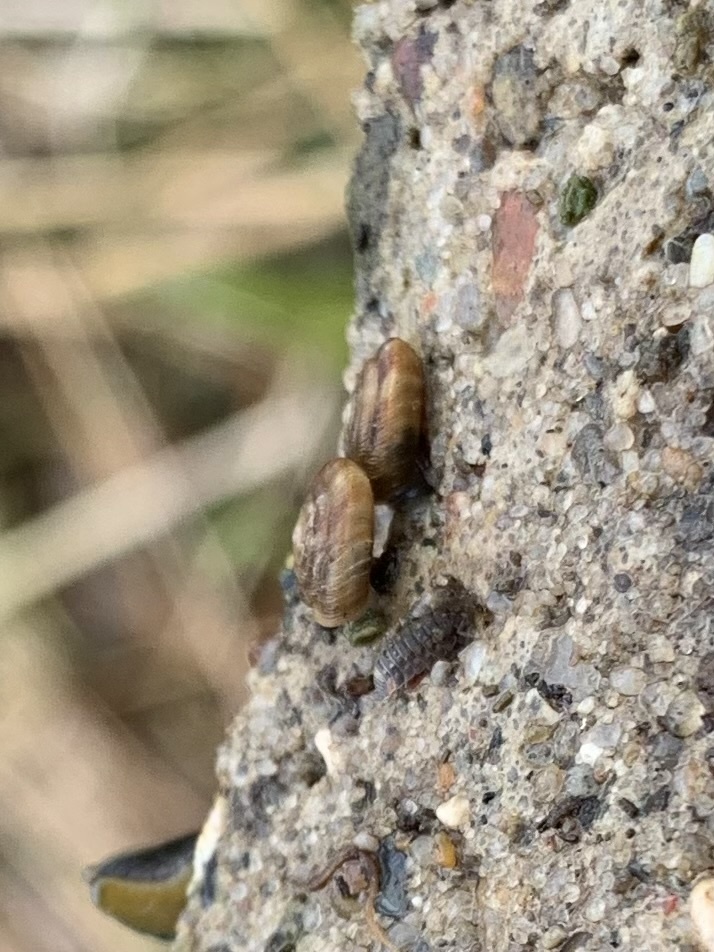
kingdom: Animalia
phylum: Mollusca
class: Gastropoda
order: Stylommatophora
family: Discidae
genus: Discus
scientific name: Discus rotundatus
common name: Rounded snail
